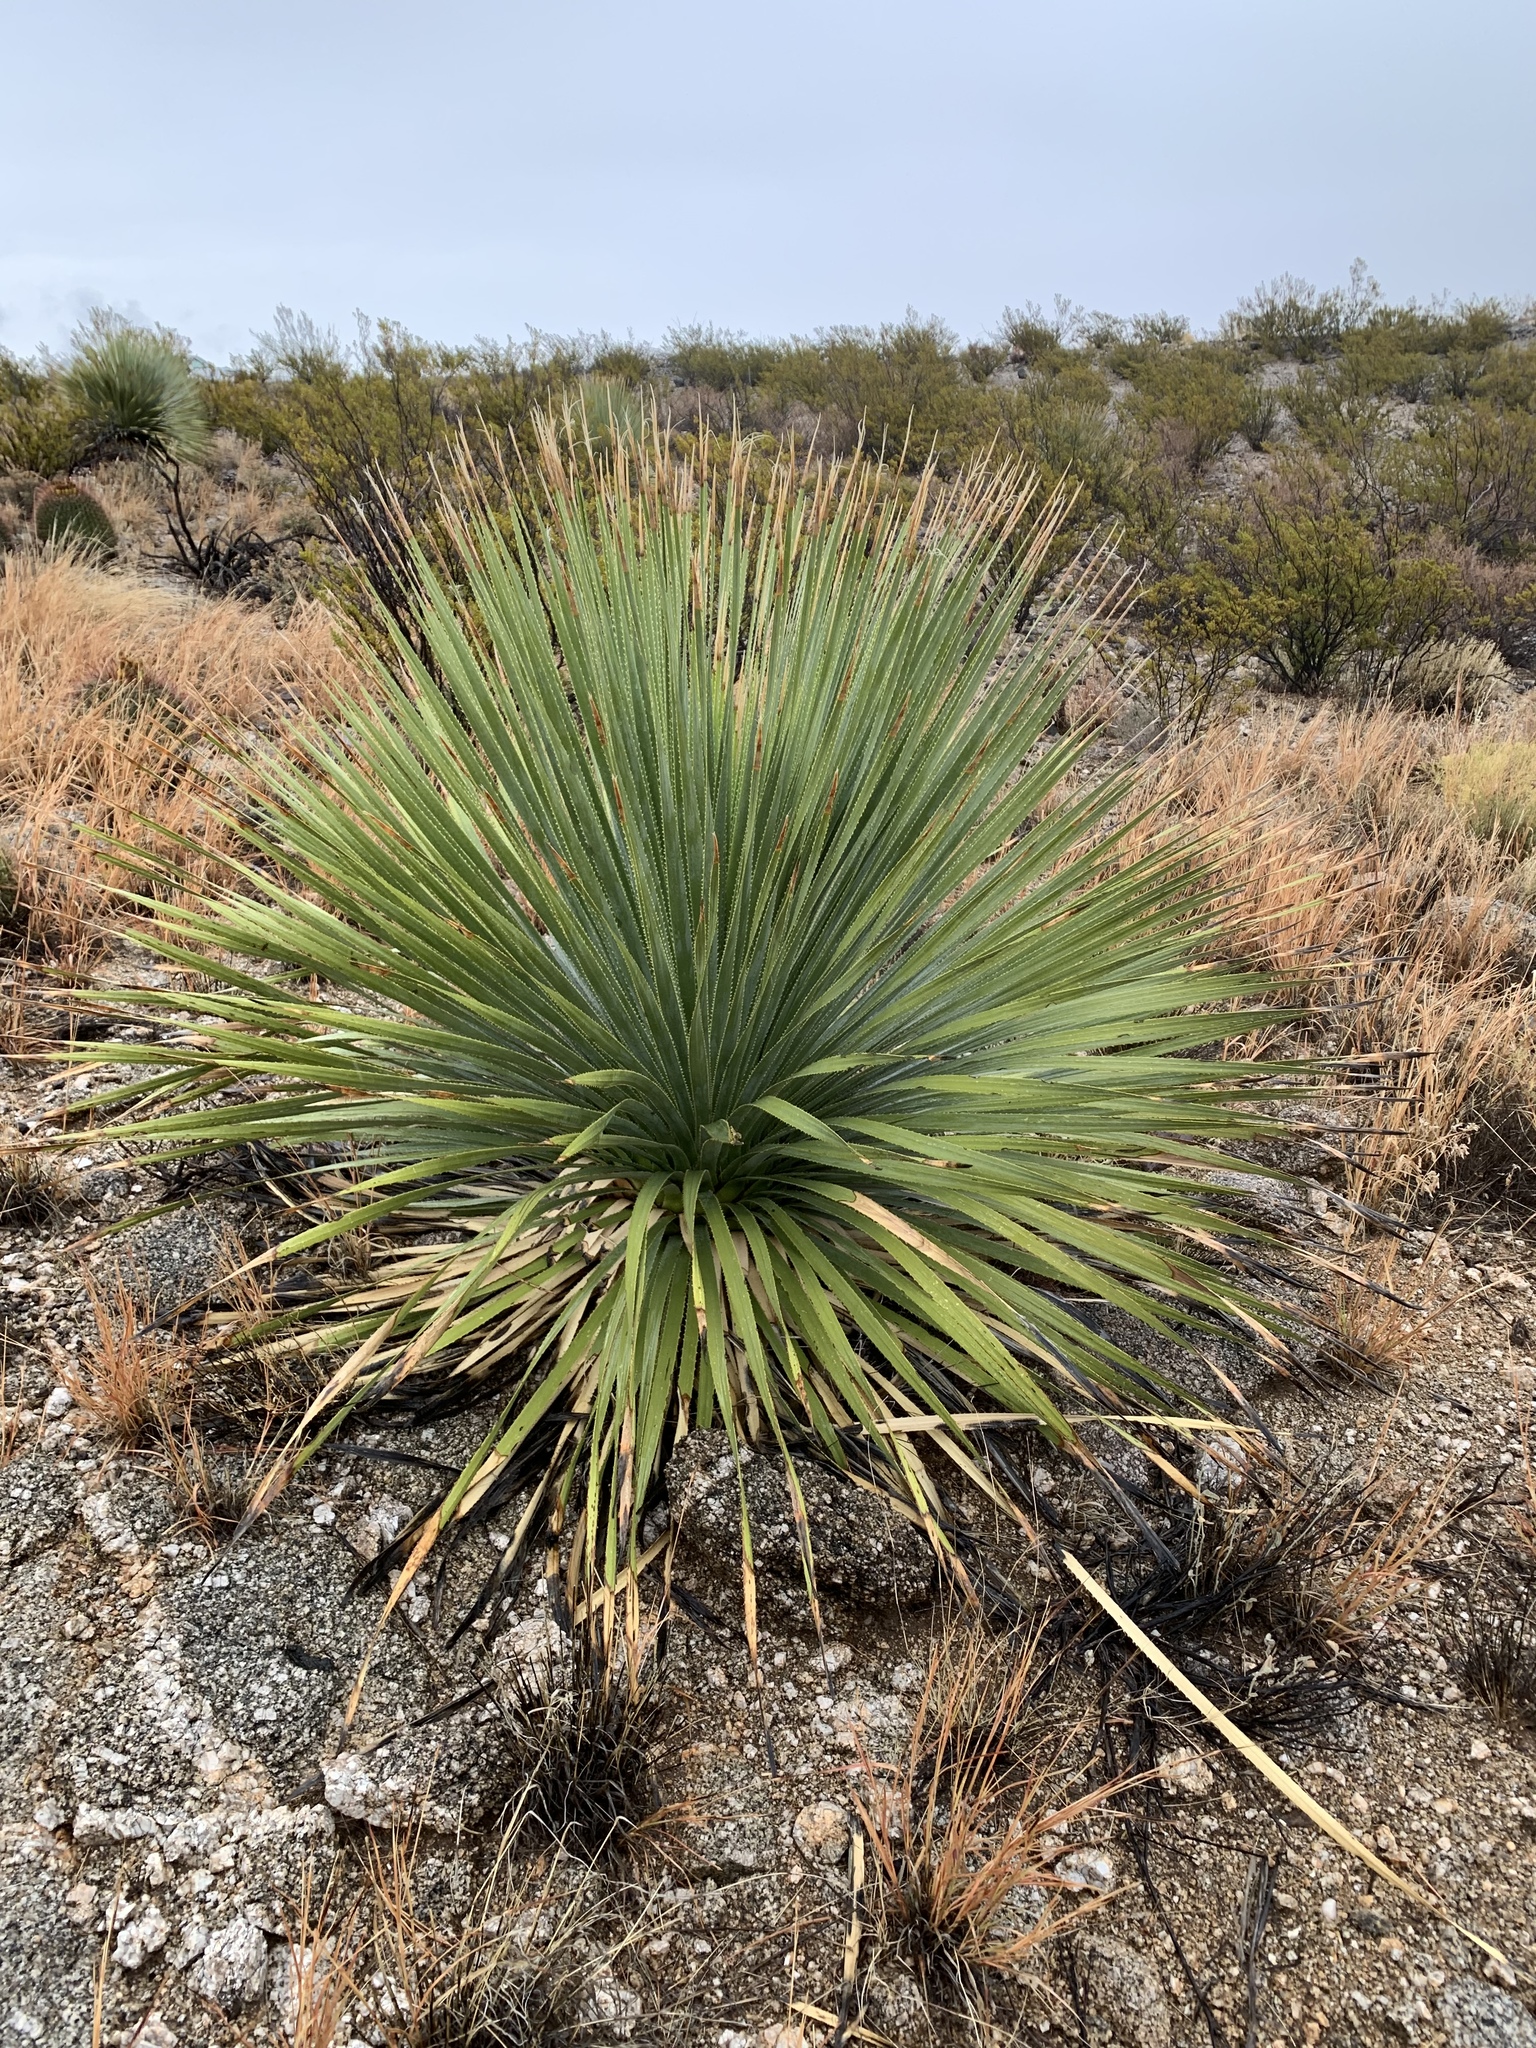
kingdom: Plantae
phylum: Tracheophyta
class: Liliopsida
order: Asparagales
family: Asparagaceae
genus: Dasylirion
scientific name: Dasylirion wheeleri
